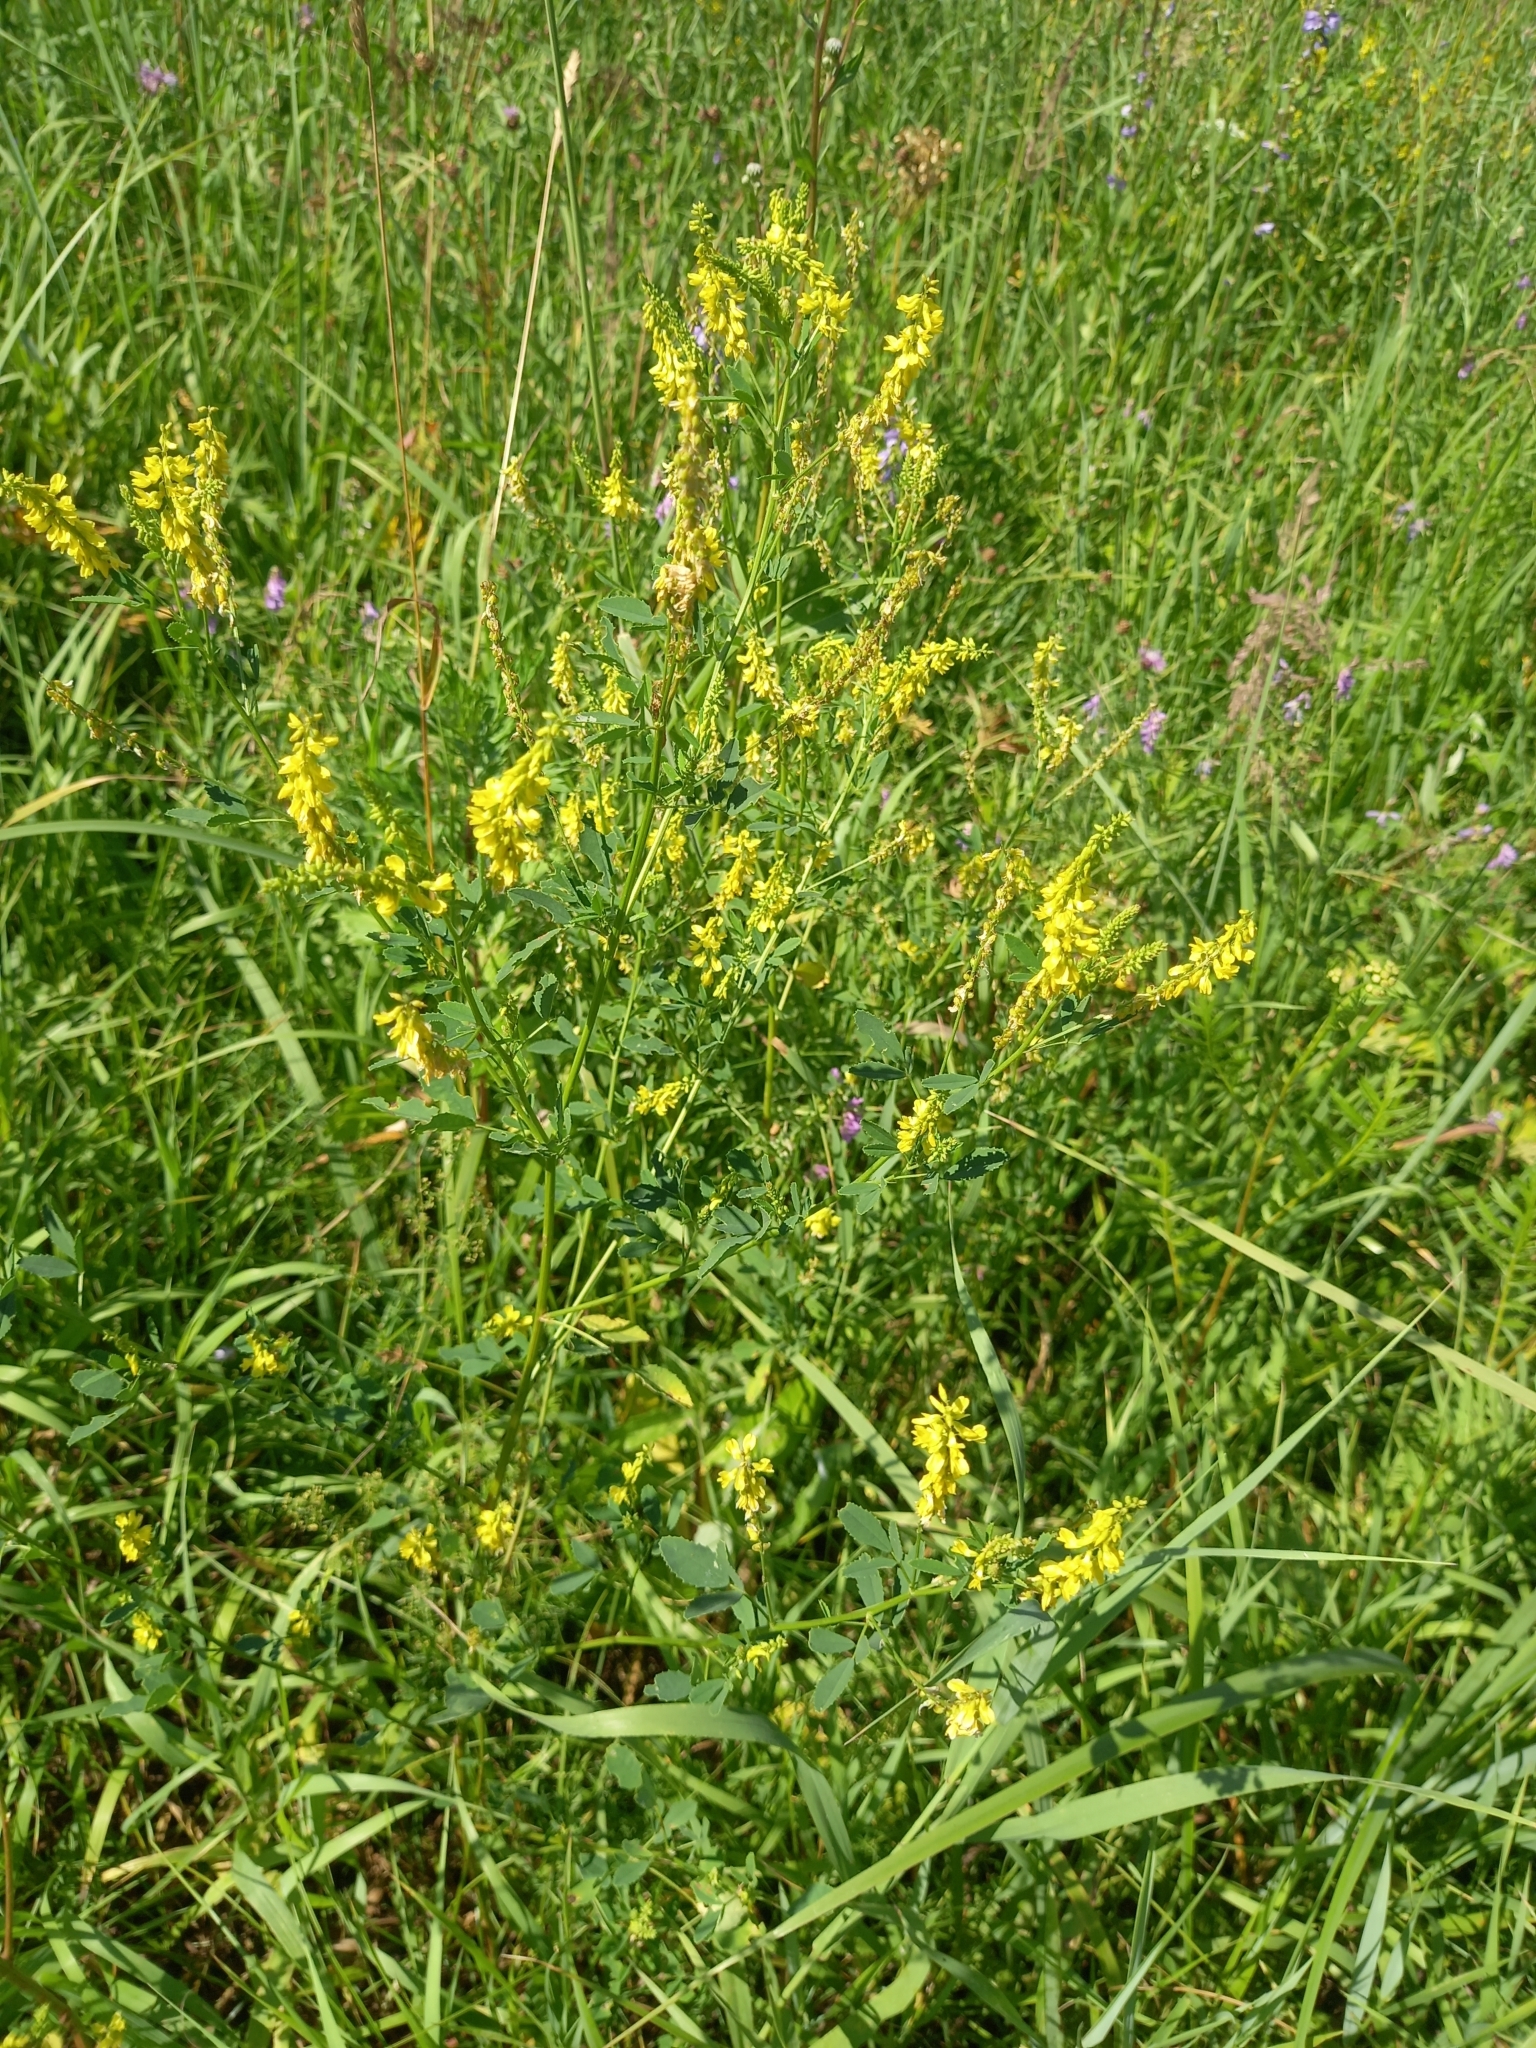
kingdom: Plantae
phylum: Tracheophyta
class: Magnoliopsida
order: Fabales
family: Fabaceae
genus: Melilotus
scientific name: Melilotus officinalis
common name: Sweetclover
